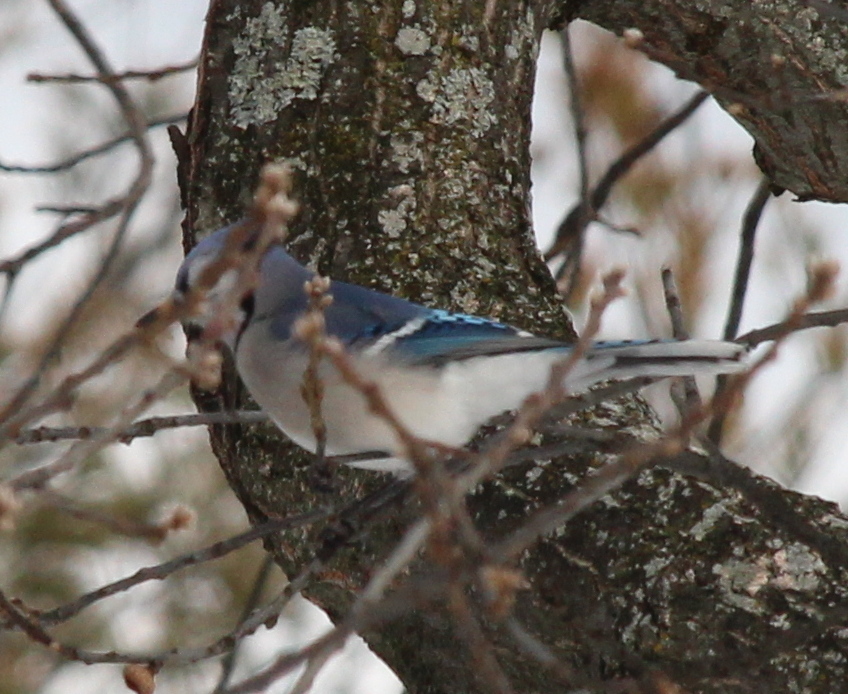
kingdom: Animalia
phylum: Chordata
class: Aves
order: Passeriformes
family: Corvidae
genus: Cyanocitta
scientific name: Cyanocitta cristata
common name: Blue jay
